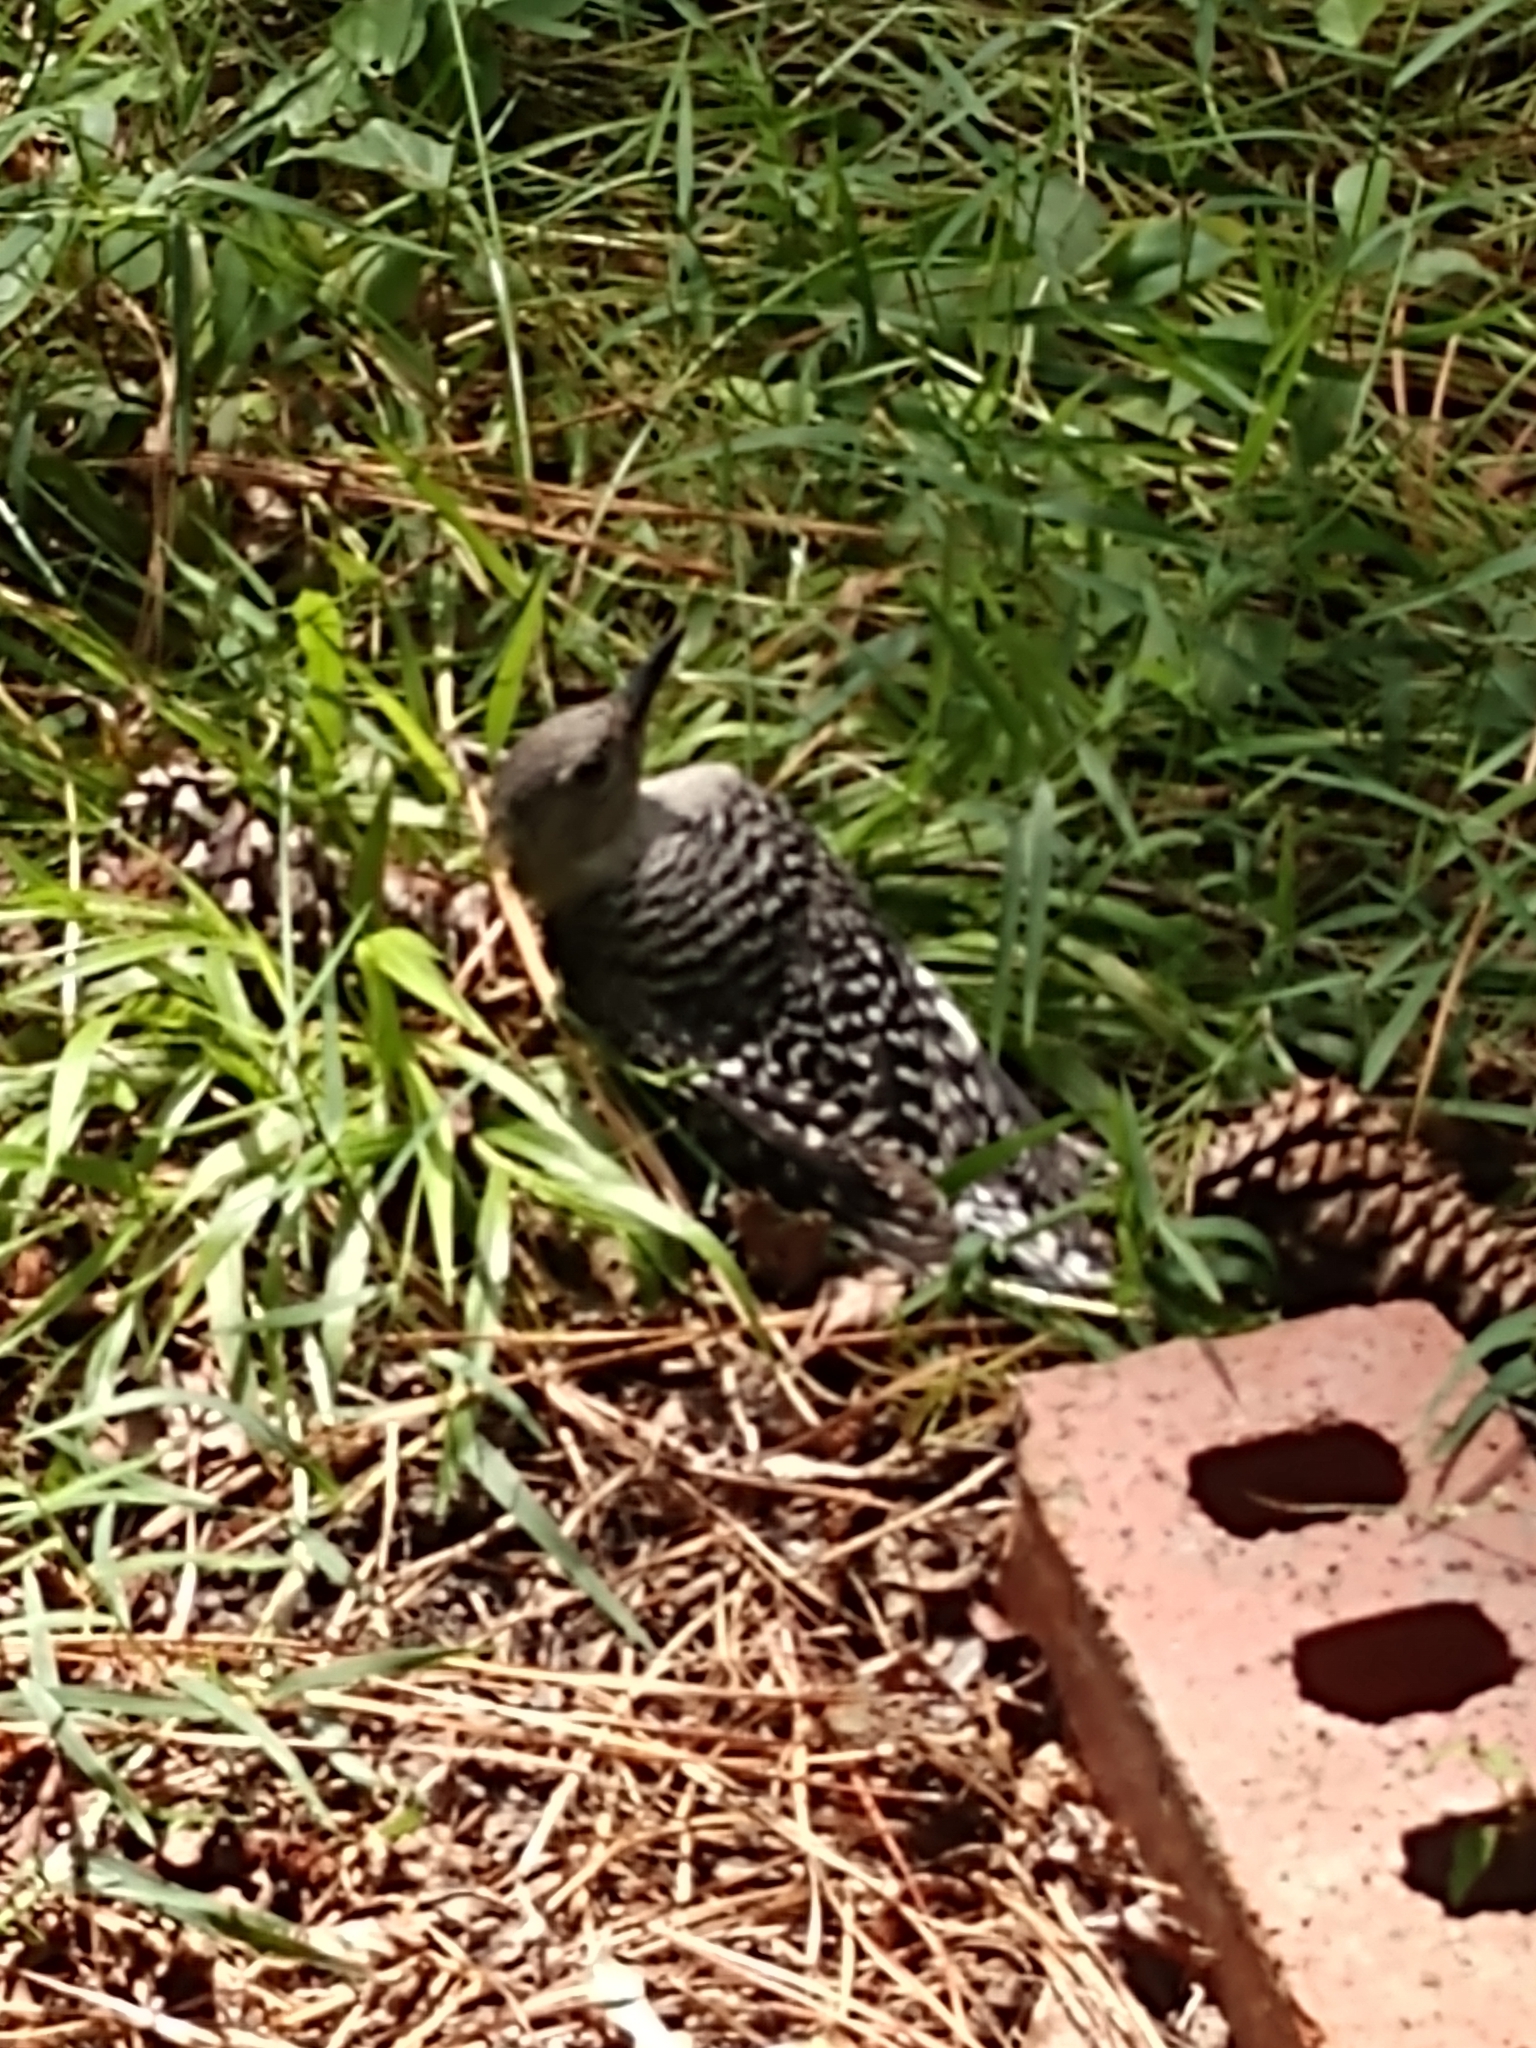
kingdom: Animalia
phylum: Chordata
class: Aves
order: Piciformes
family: Picidae
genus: Melanerpes
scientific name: Melanerpes carolinus
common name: Red-bellied woodpecker
